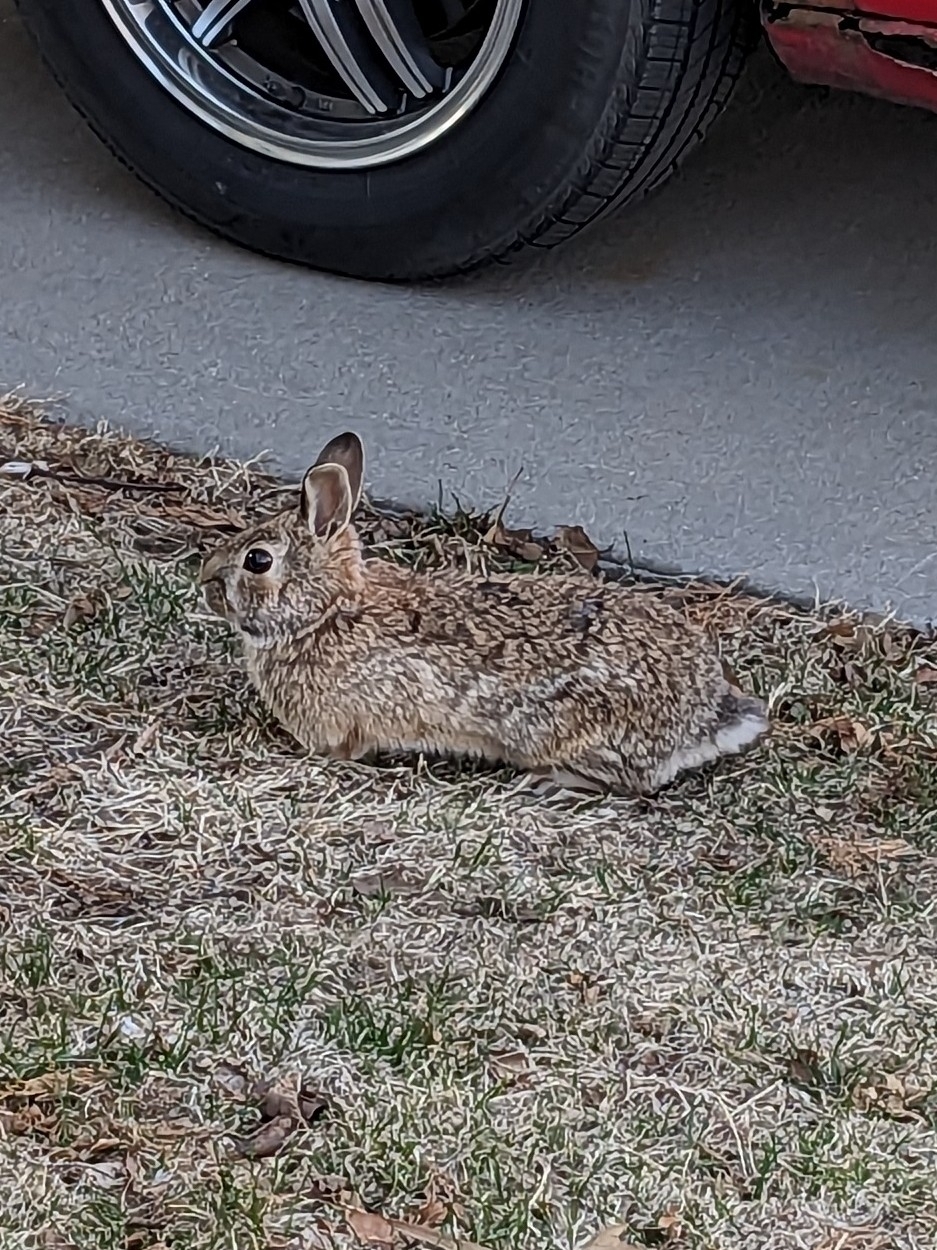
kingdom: Animalia
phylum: Chordata
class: Mammalia
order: Lagomorpha
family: Leporidae
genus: Sylvilagus
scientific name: Sylvilagus floridanus
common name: Eastern cottontail
